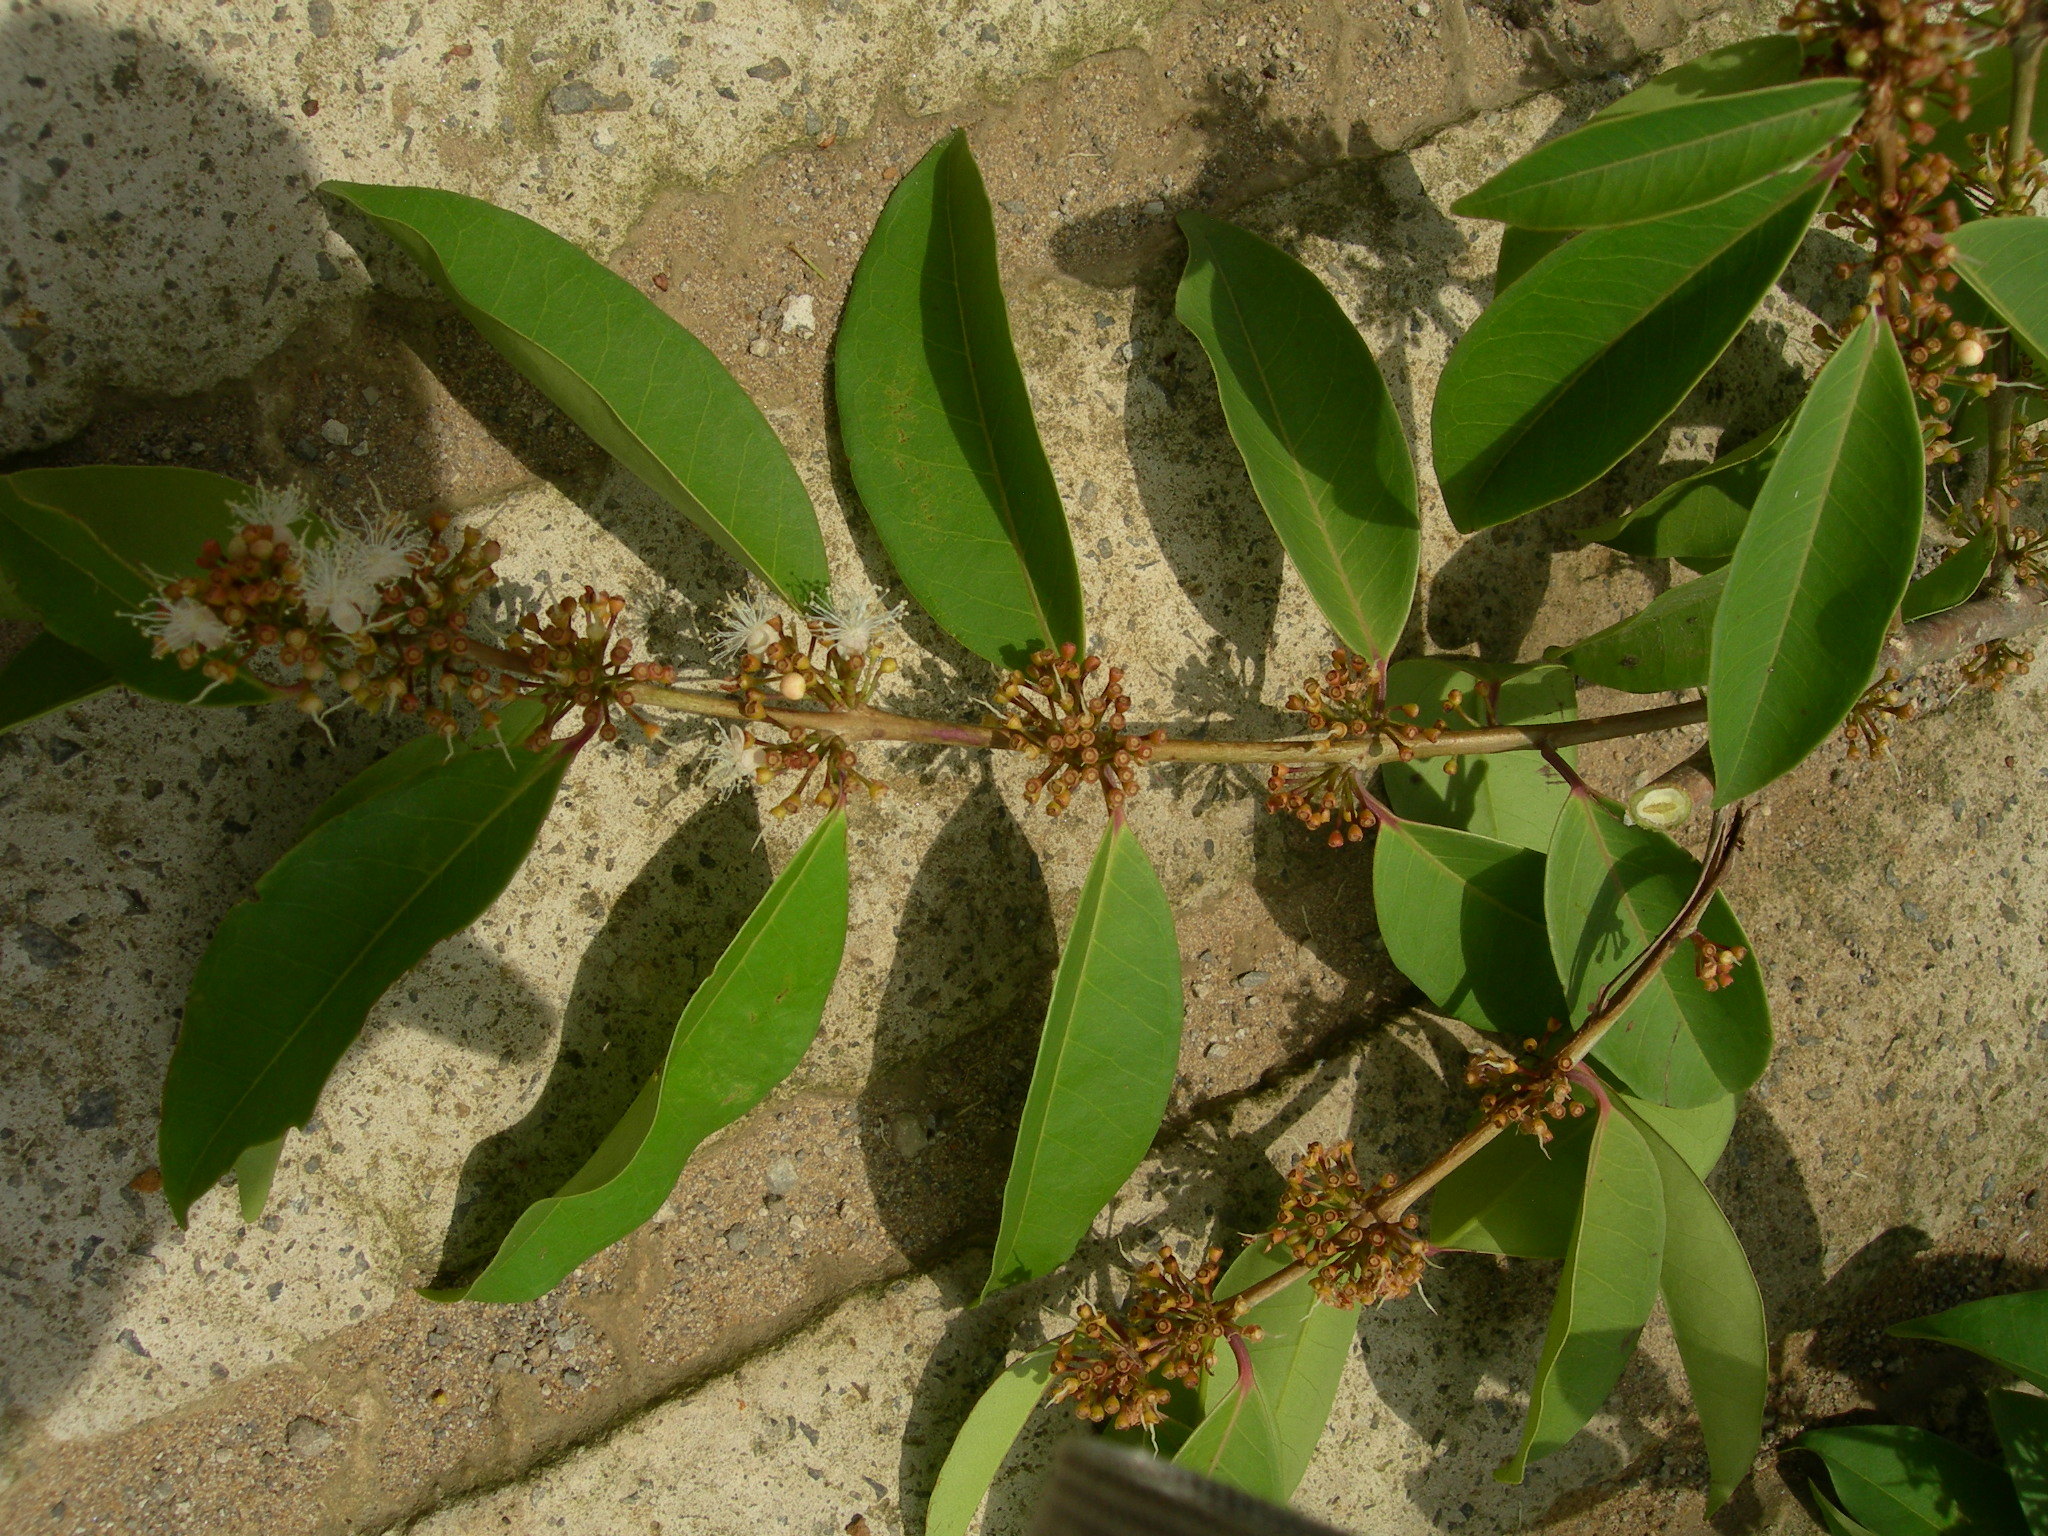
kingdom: Plantae
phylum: Tracheophyta
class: Magnoliopsida
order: Myrtales
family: Myrtaceae
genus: Eugenia
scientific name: Eugenia tonii
